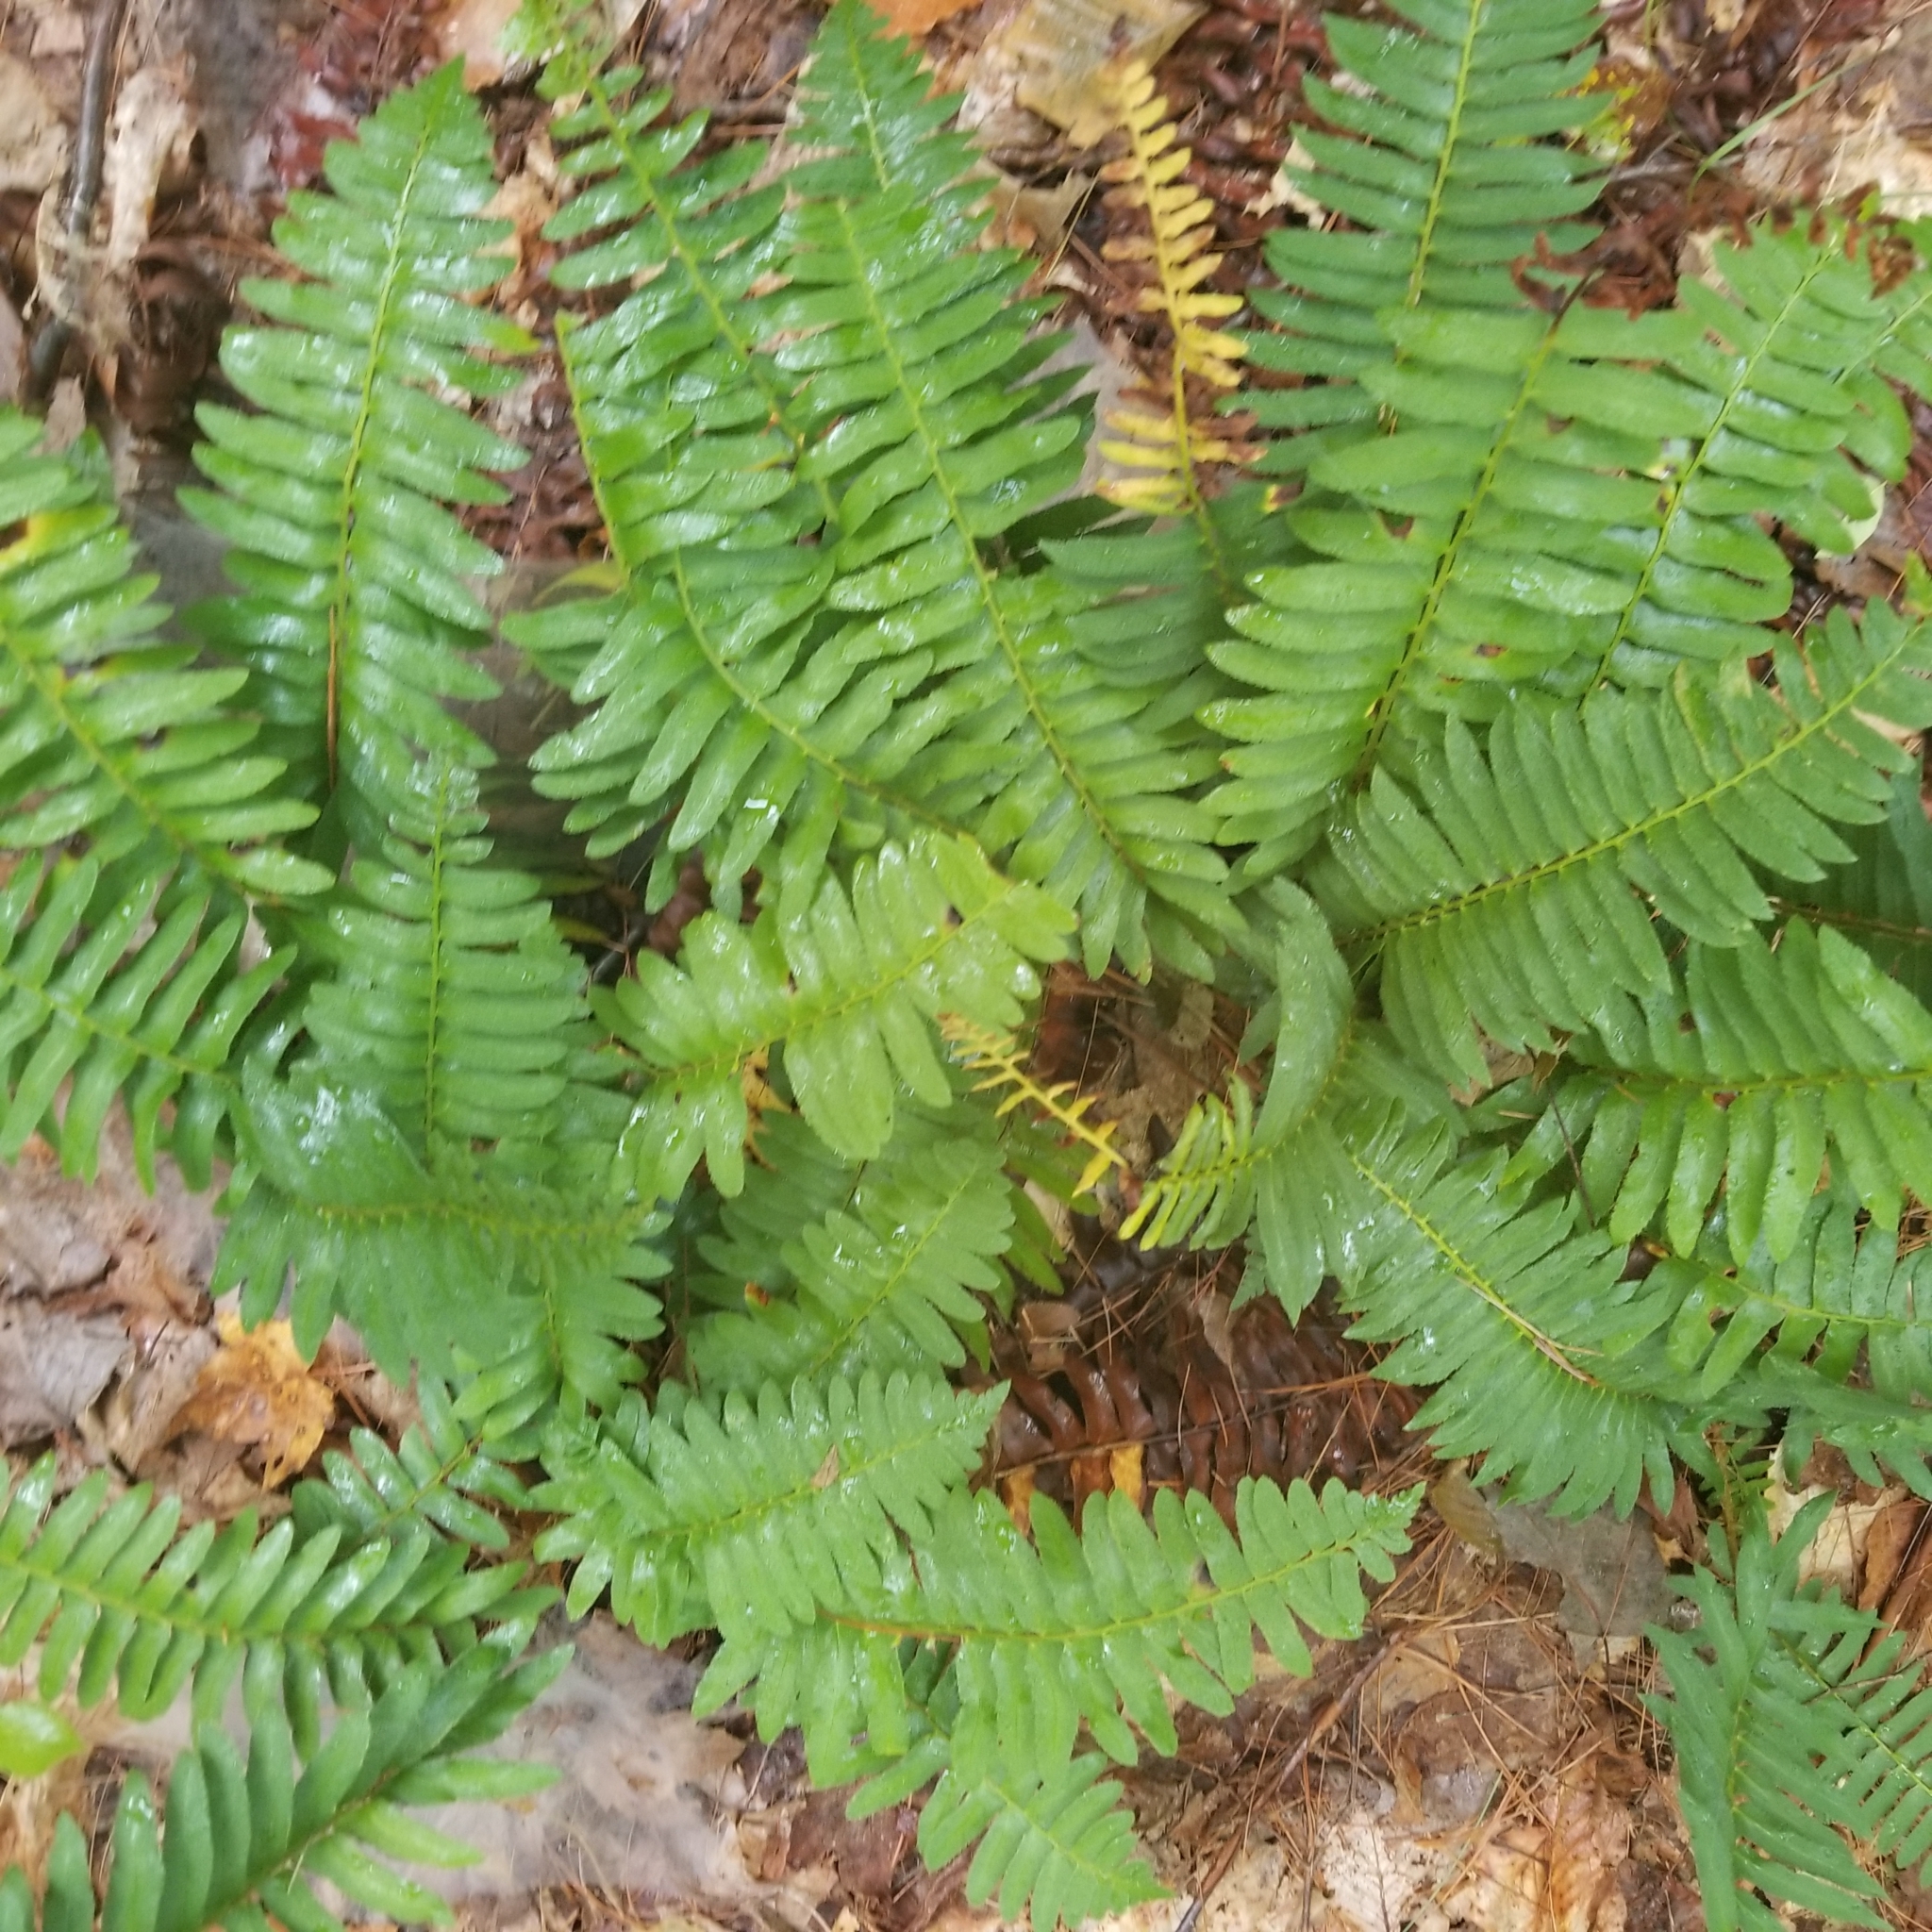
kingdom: Plantae
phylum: Tracheophyta
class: Polypodiopsida
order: Polypodiales
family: Dryopteridaceae
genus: Polystichum
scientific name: Polystichum acrostichoides
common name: Christmas fern
